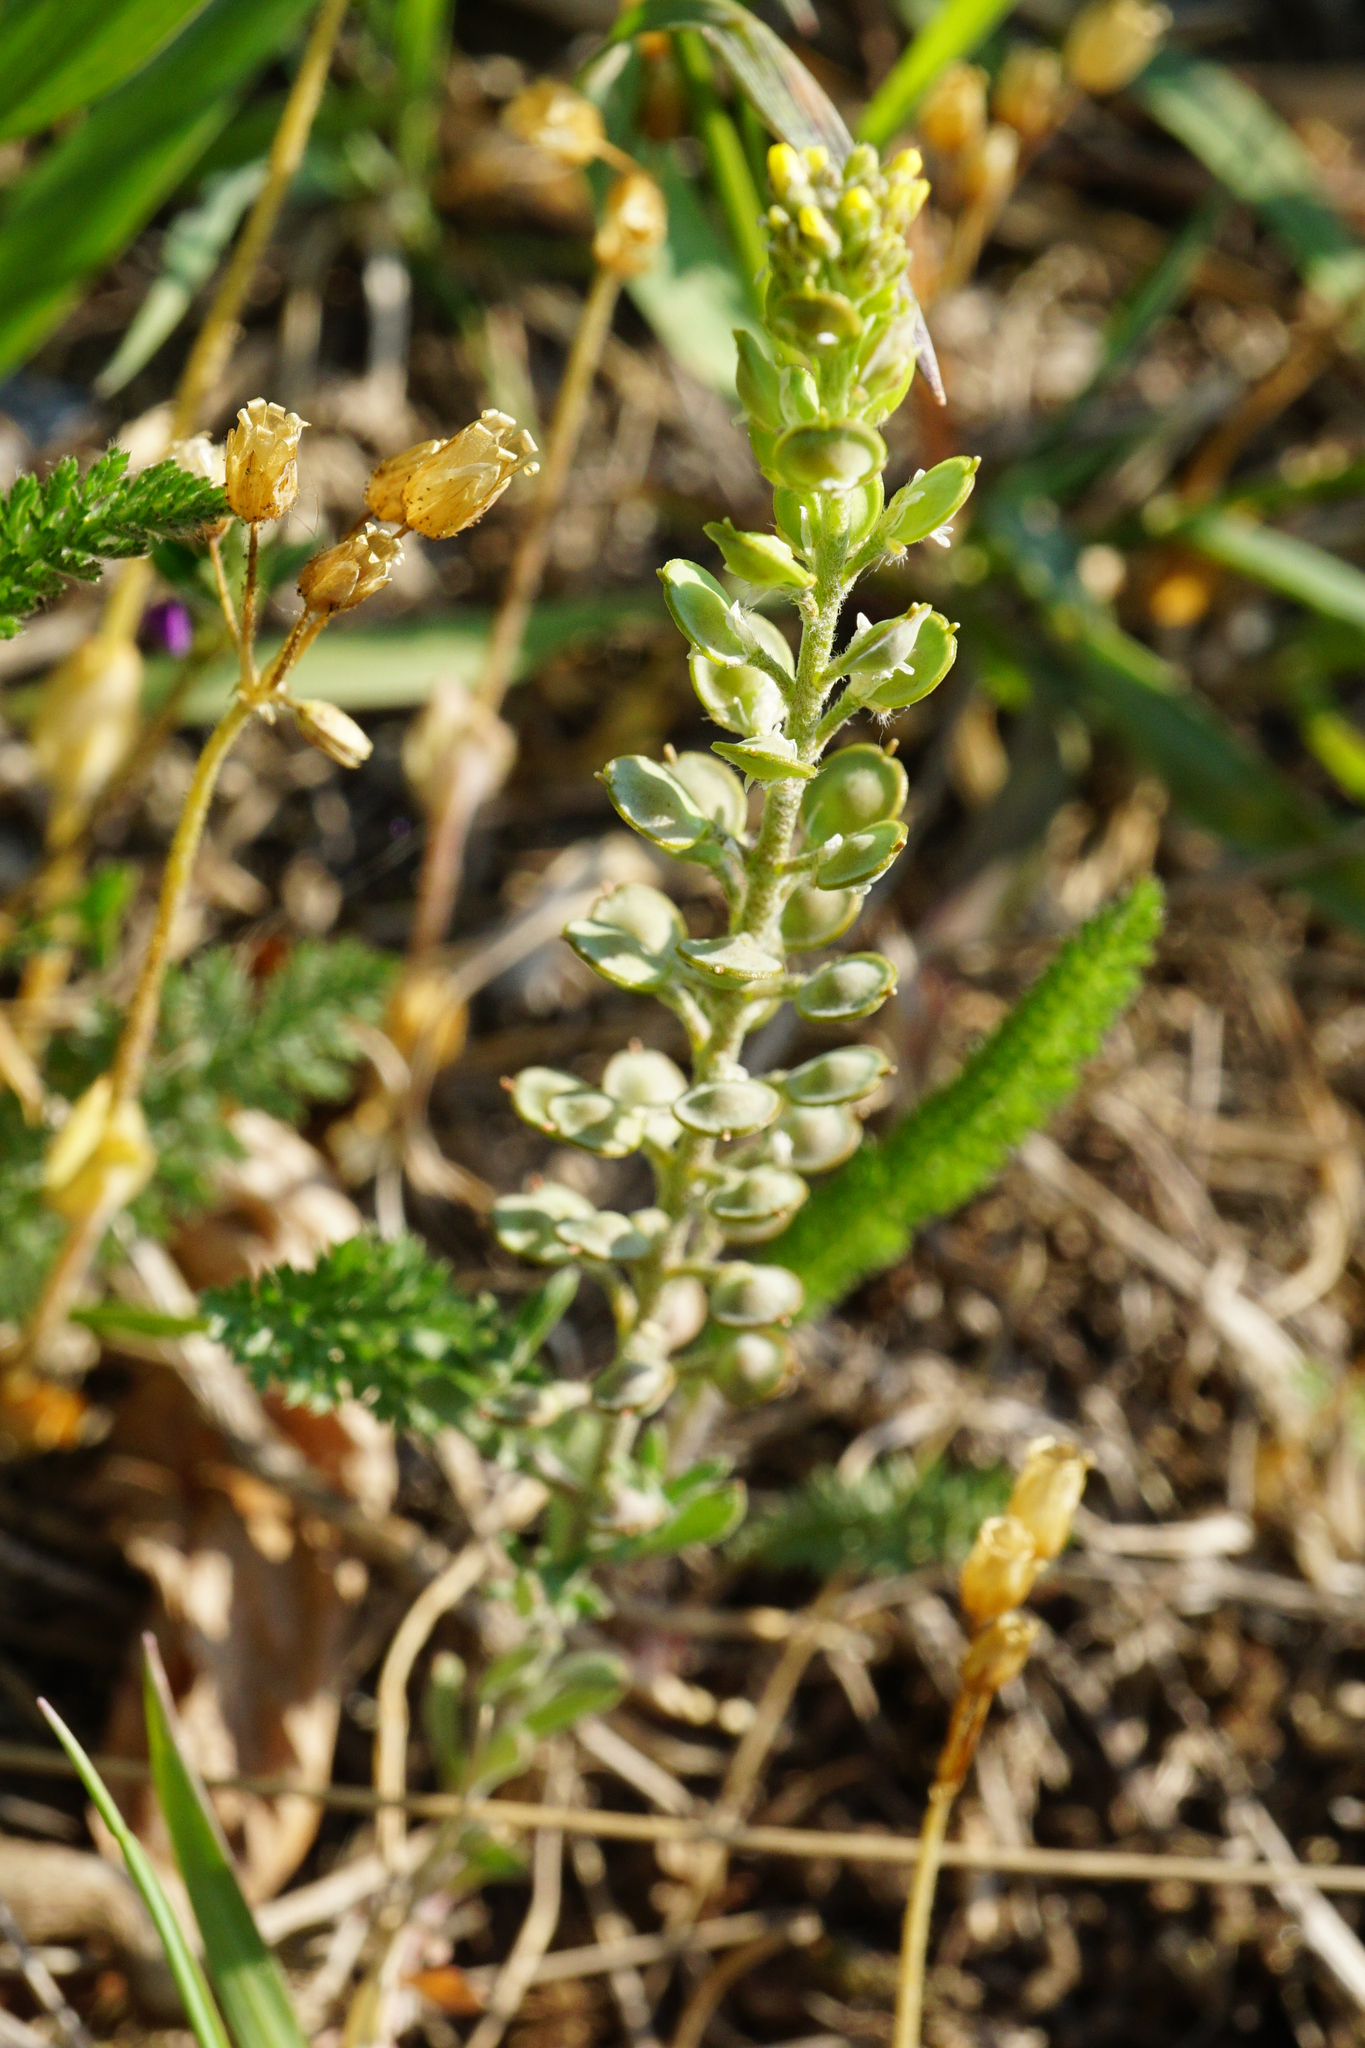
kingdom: Plantae
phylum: Tracheophyta
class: Magnoliopsida
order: Brassicales
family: Brassicaceae
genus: Alyssum
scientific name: Alyssum turkestanicum
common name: Desert alyssum
